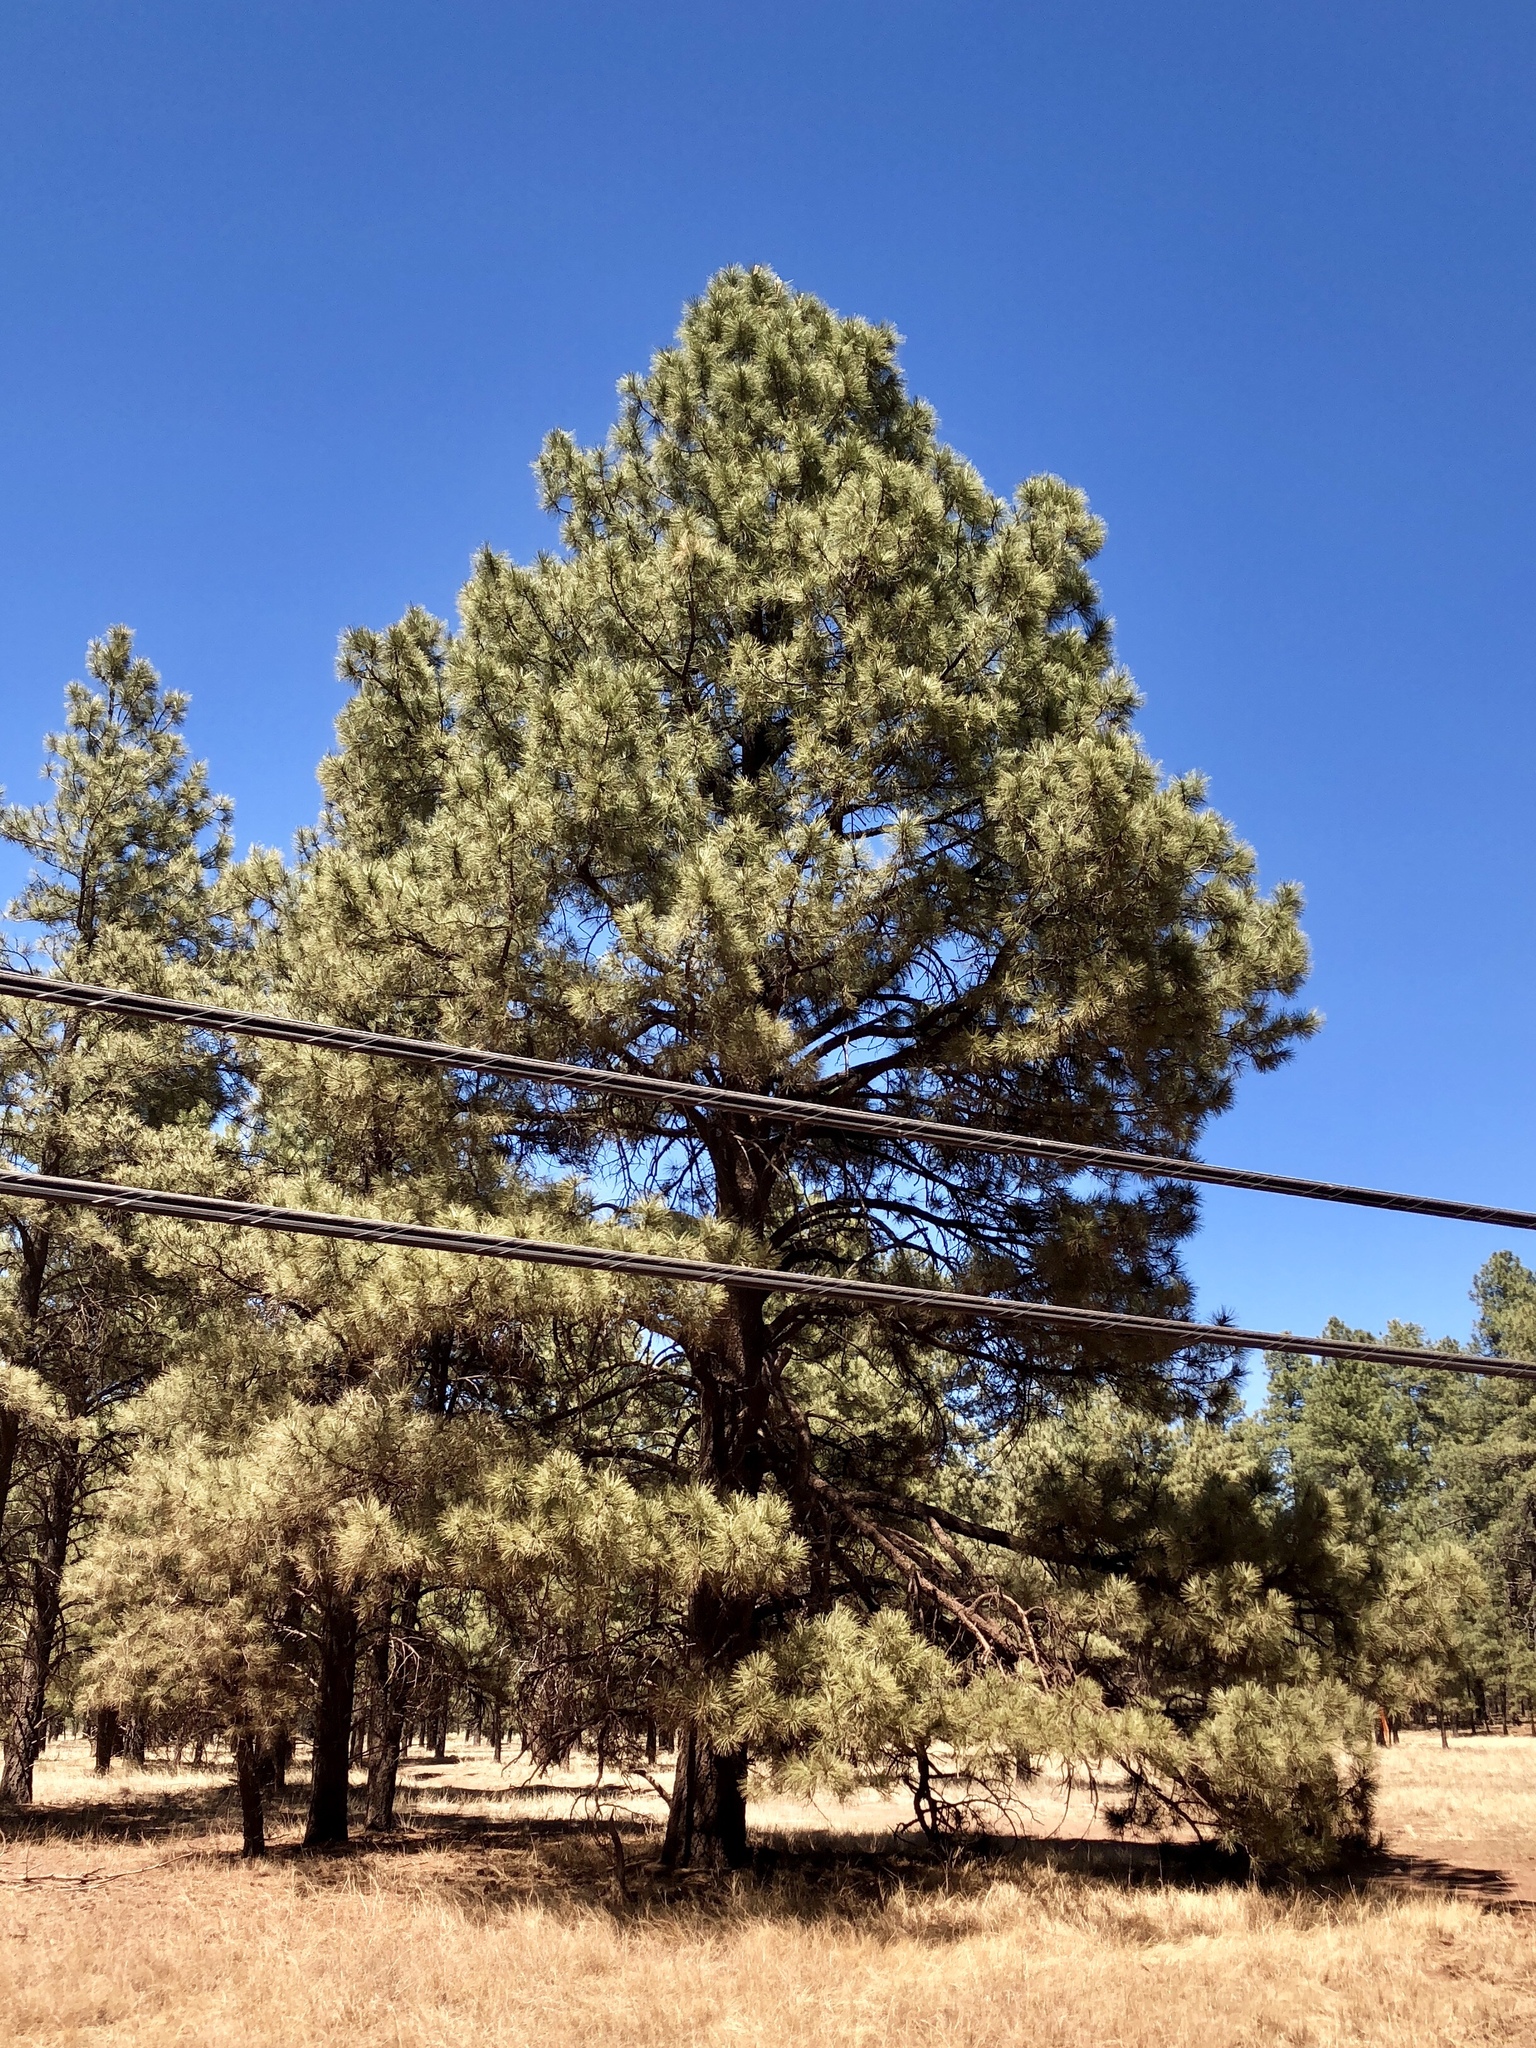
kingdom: Plantae
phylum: Tracheophyta
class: Pinopsida
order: Pinales
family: Pinaceae
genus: Pinus
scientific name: Pinus ponderosa
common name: Western yellow-pine
